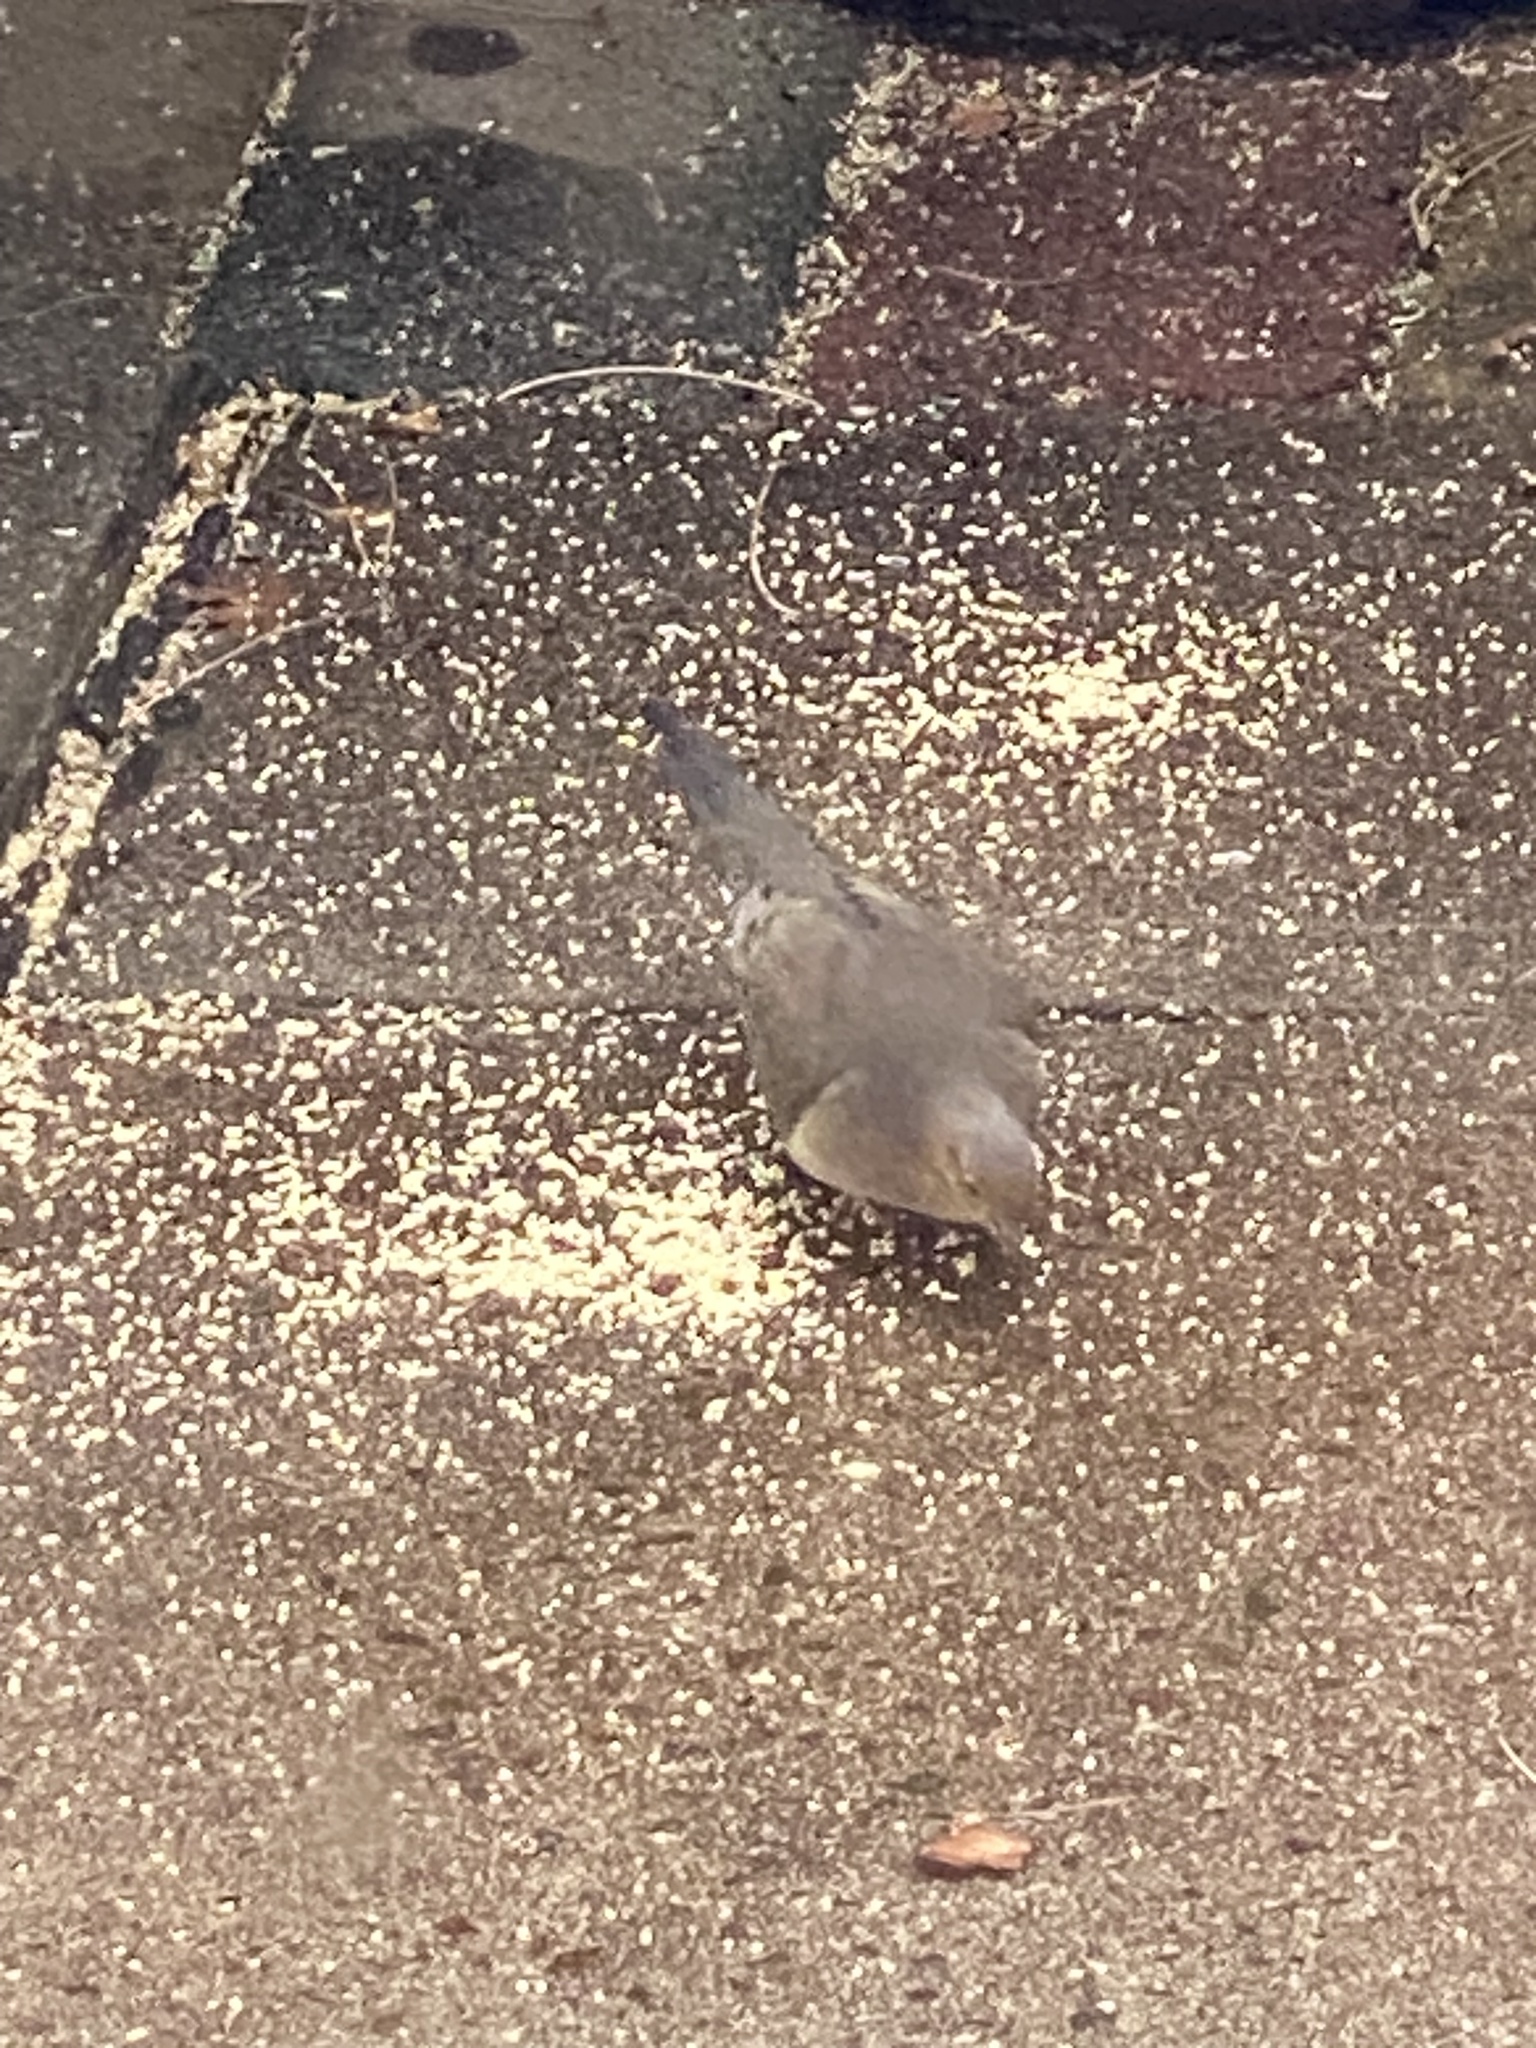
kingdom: Animalia
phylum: Chordata
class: Aves
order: Columbiformes
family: Columbidae
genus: Zenaida
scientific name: Zenaida macroura
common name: Mourning dove
